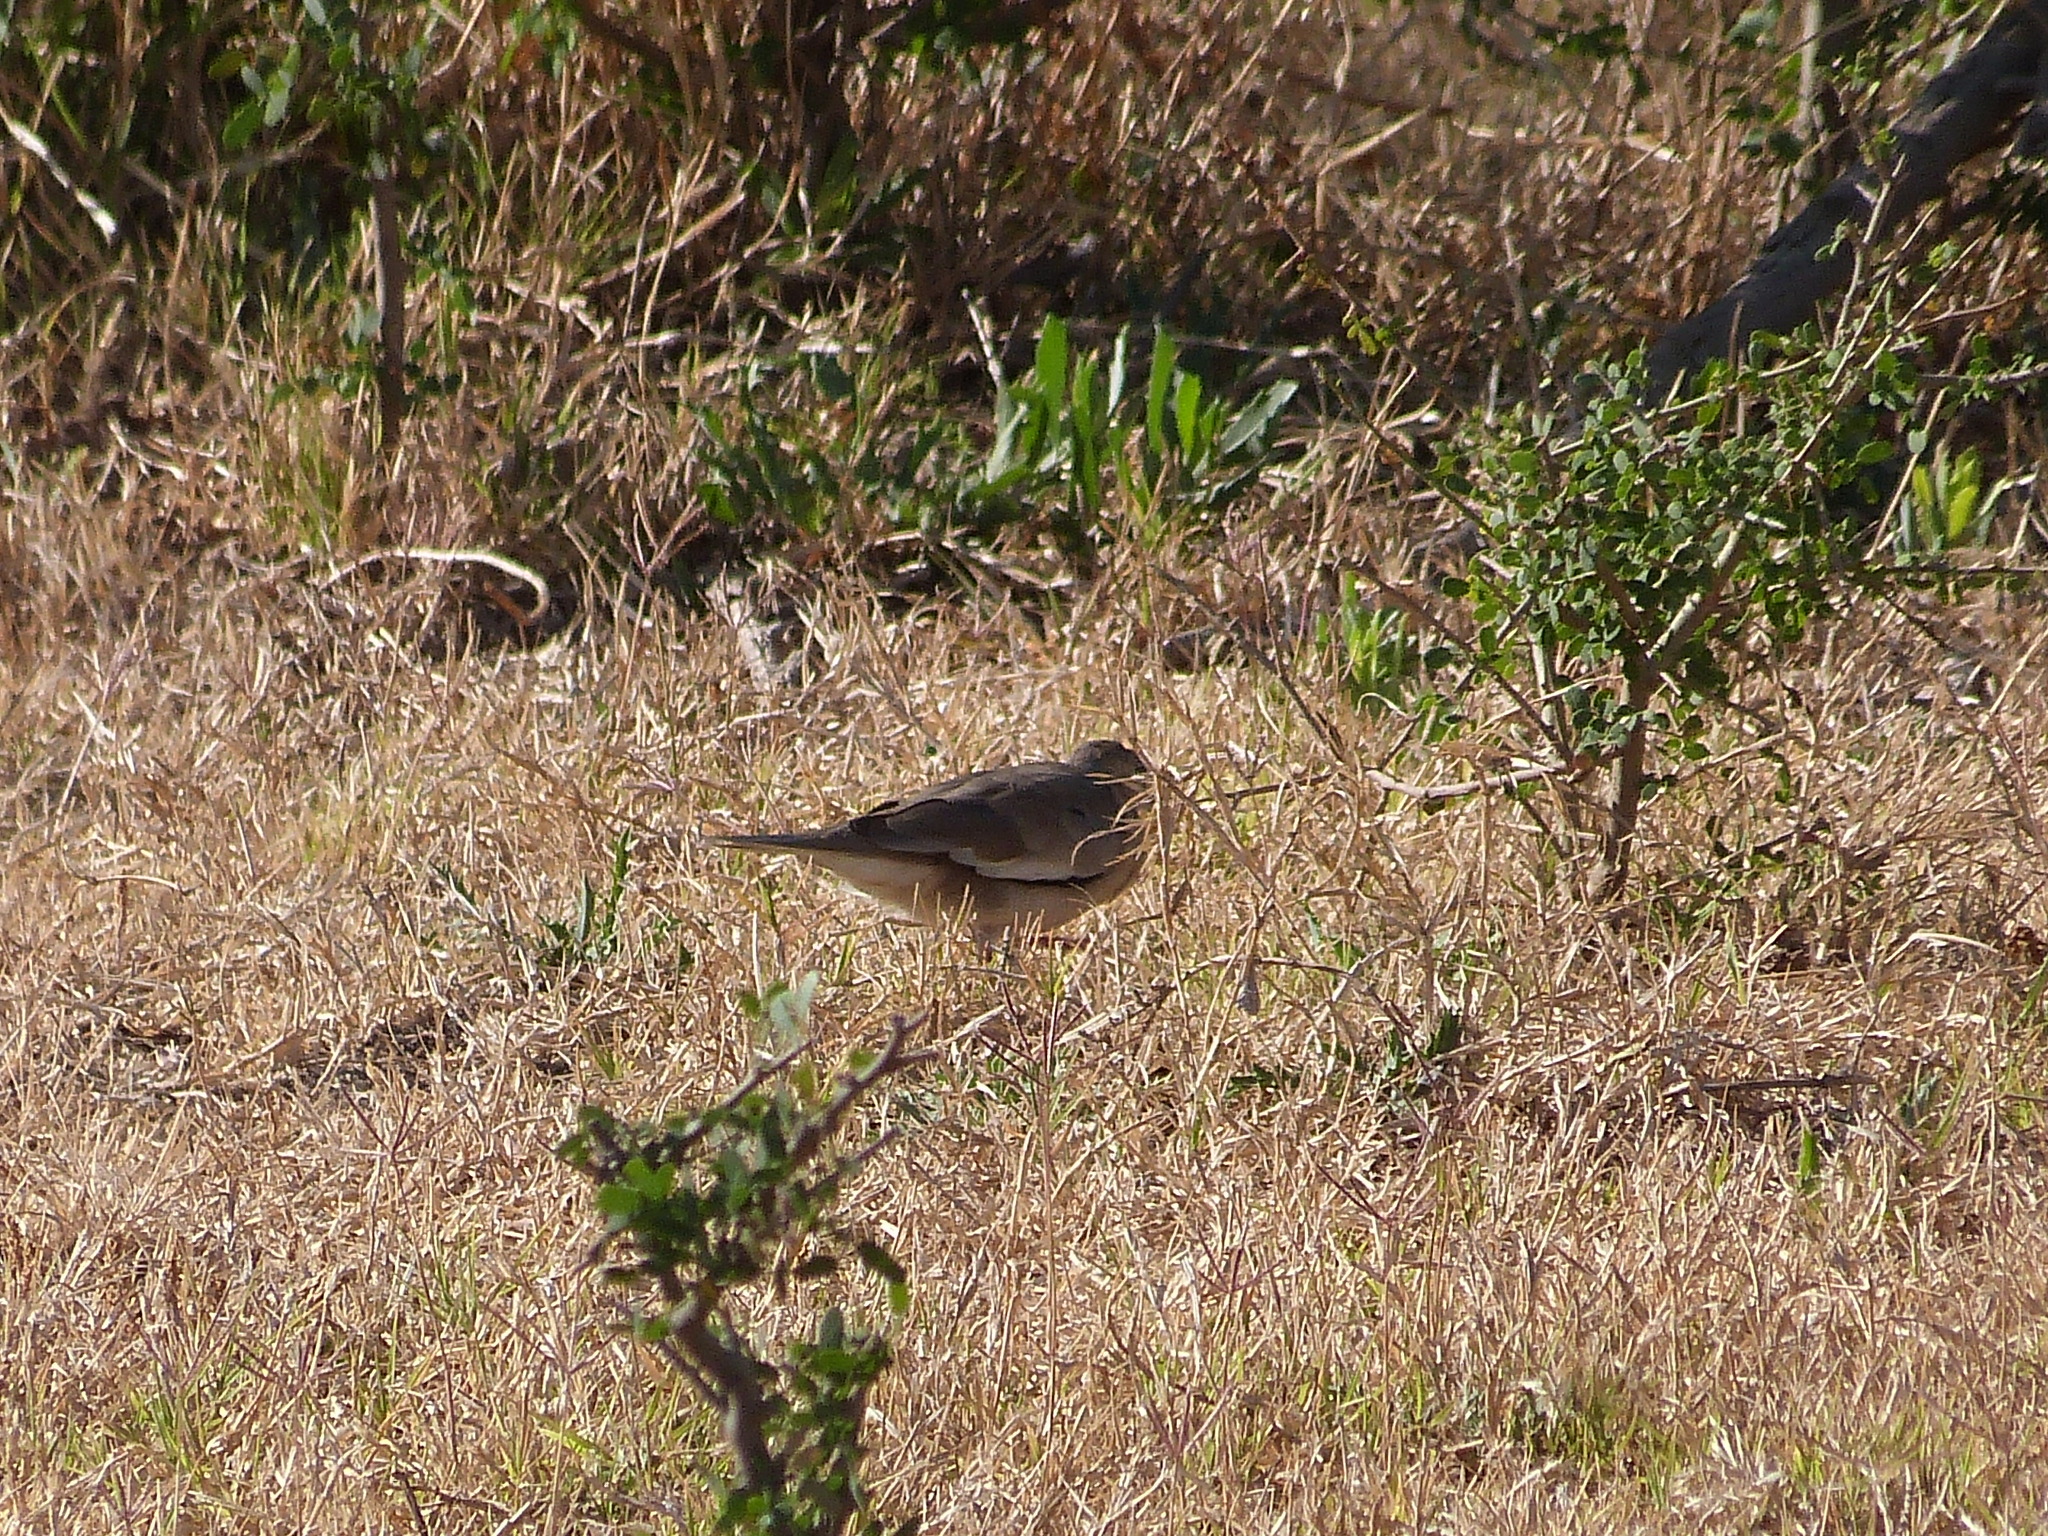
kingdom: Animalia
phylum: Chordata
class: Aves
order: Columbiformes
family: Columbidae
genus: Columbina
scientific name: Columbina picui
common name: Picui ground dove
